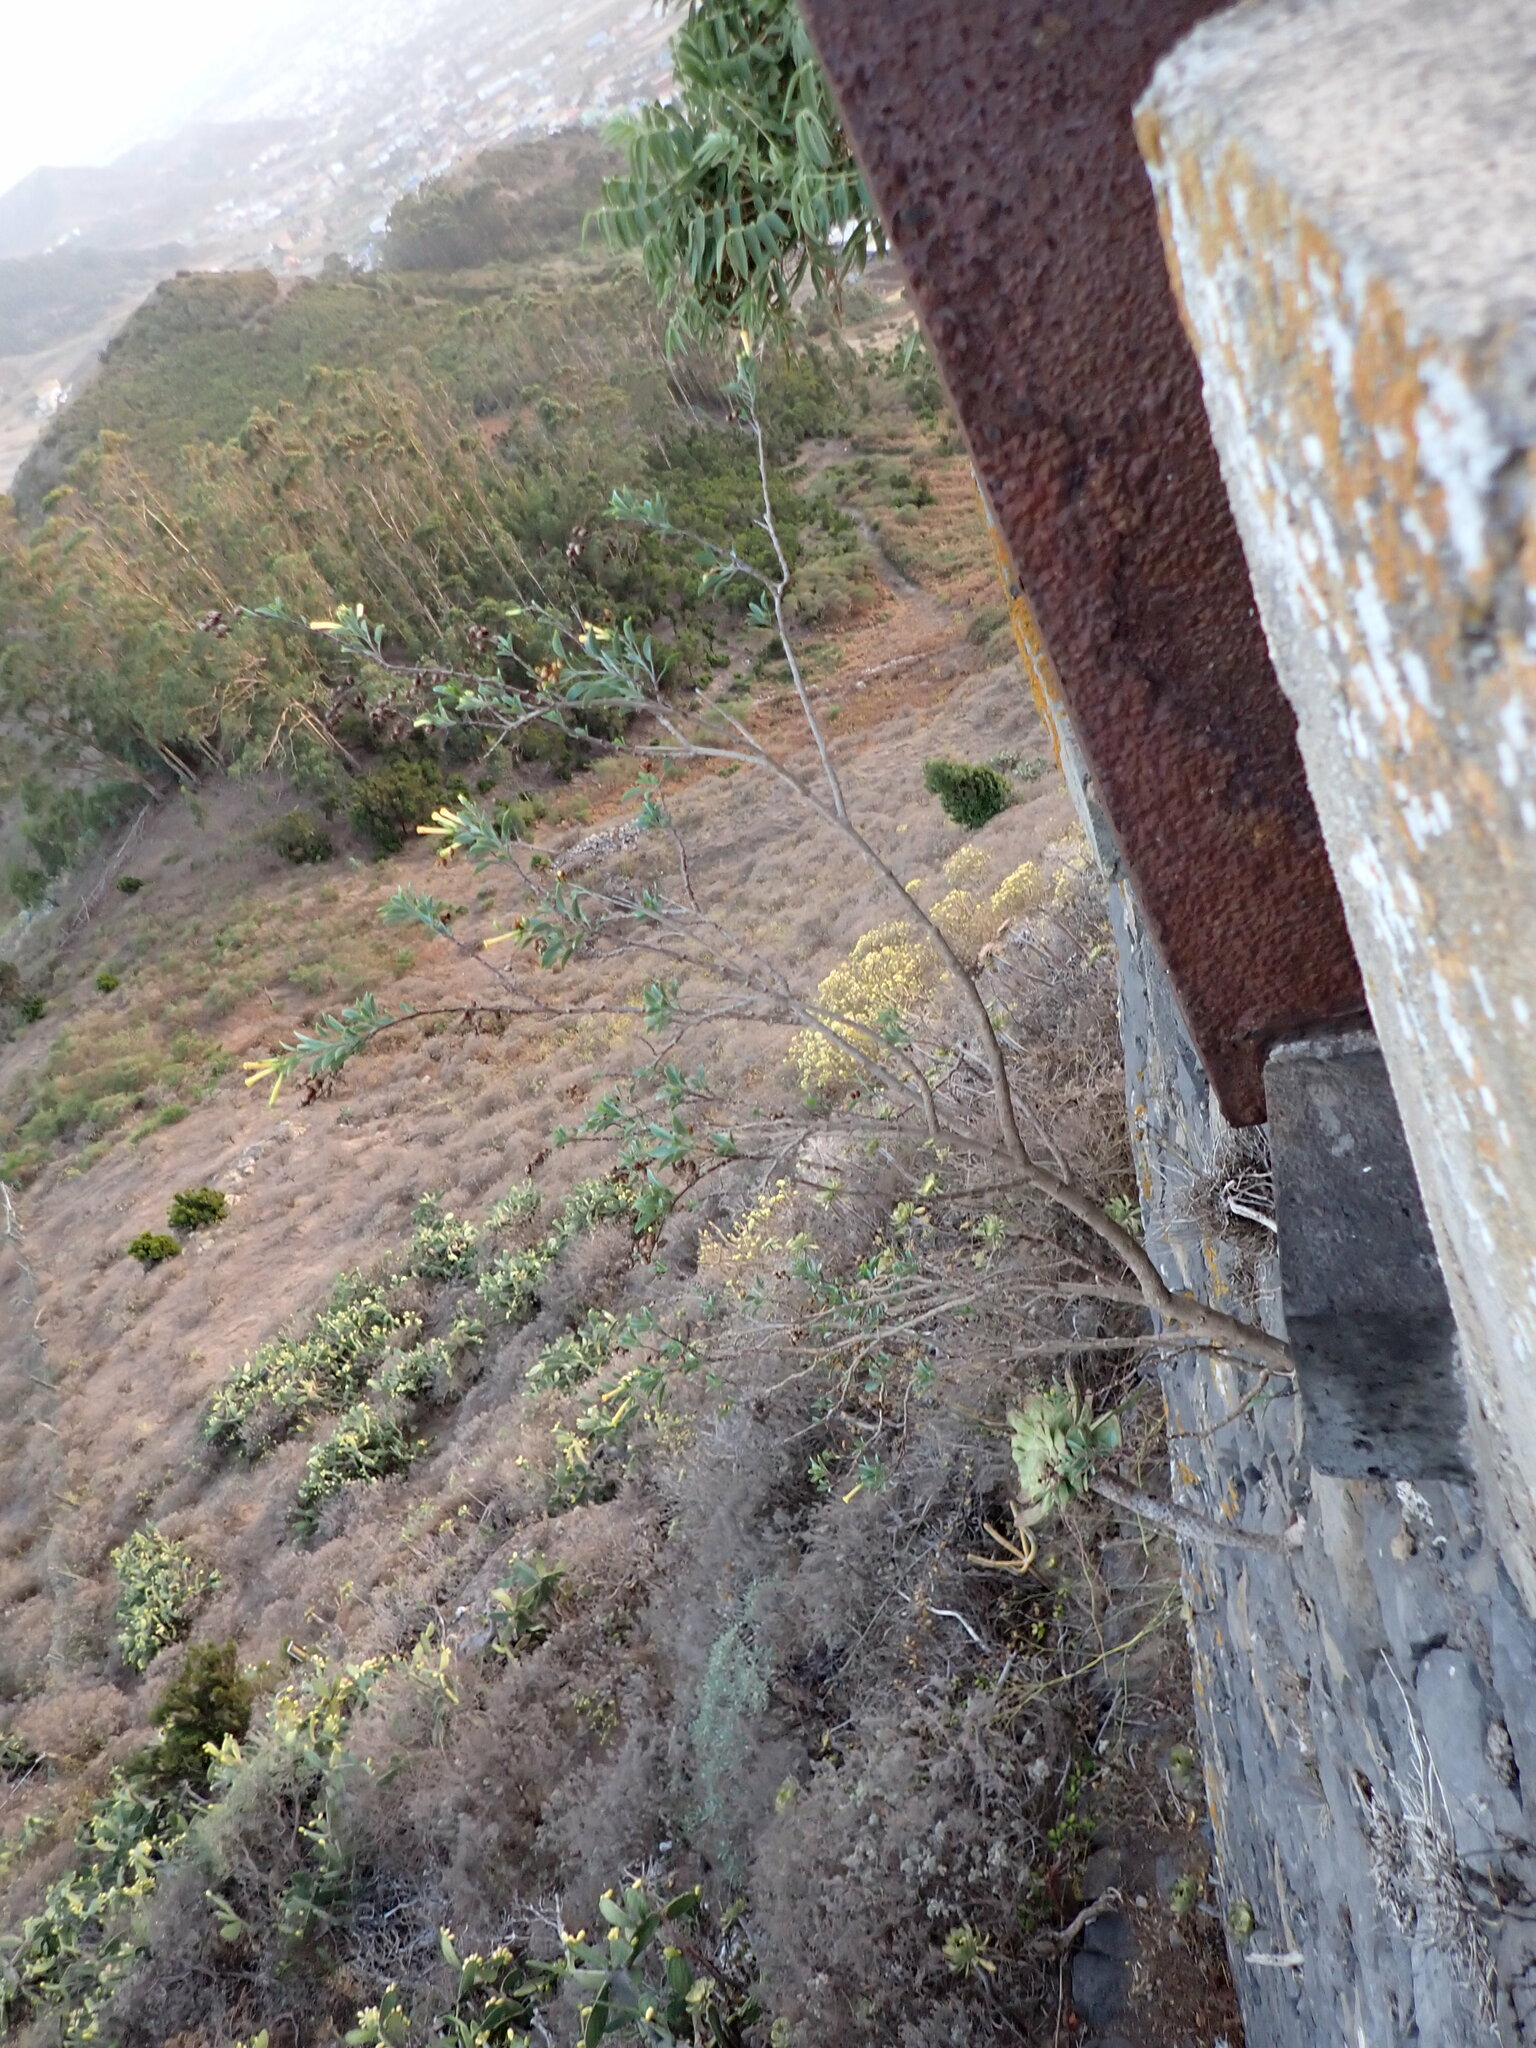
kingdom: Plantae
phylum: Tracheophyta
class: Magnoliopsida
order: Solanales
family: Solanaceae
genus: Nicotiana
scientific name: Nicotiana glauca
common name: Tree tobacco
